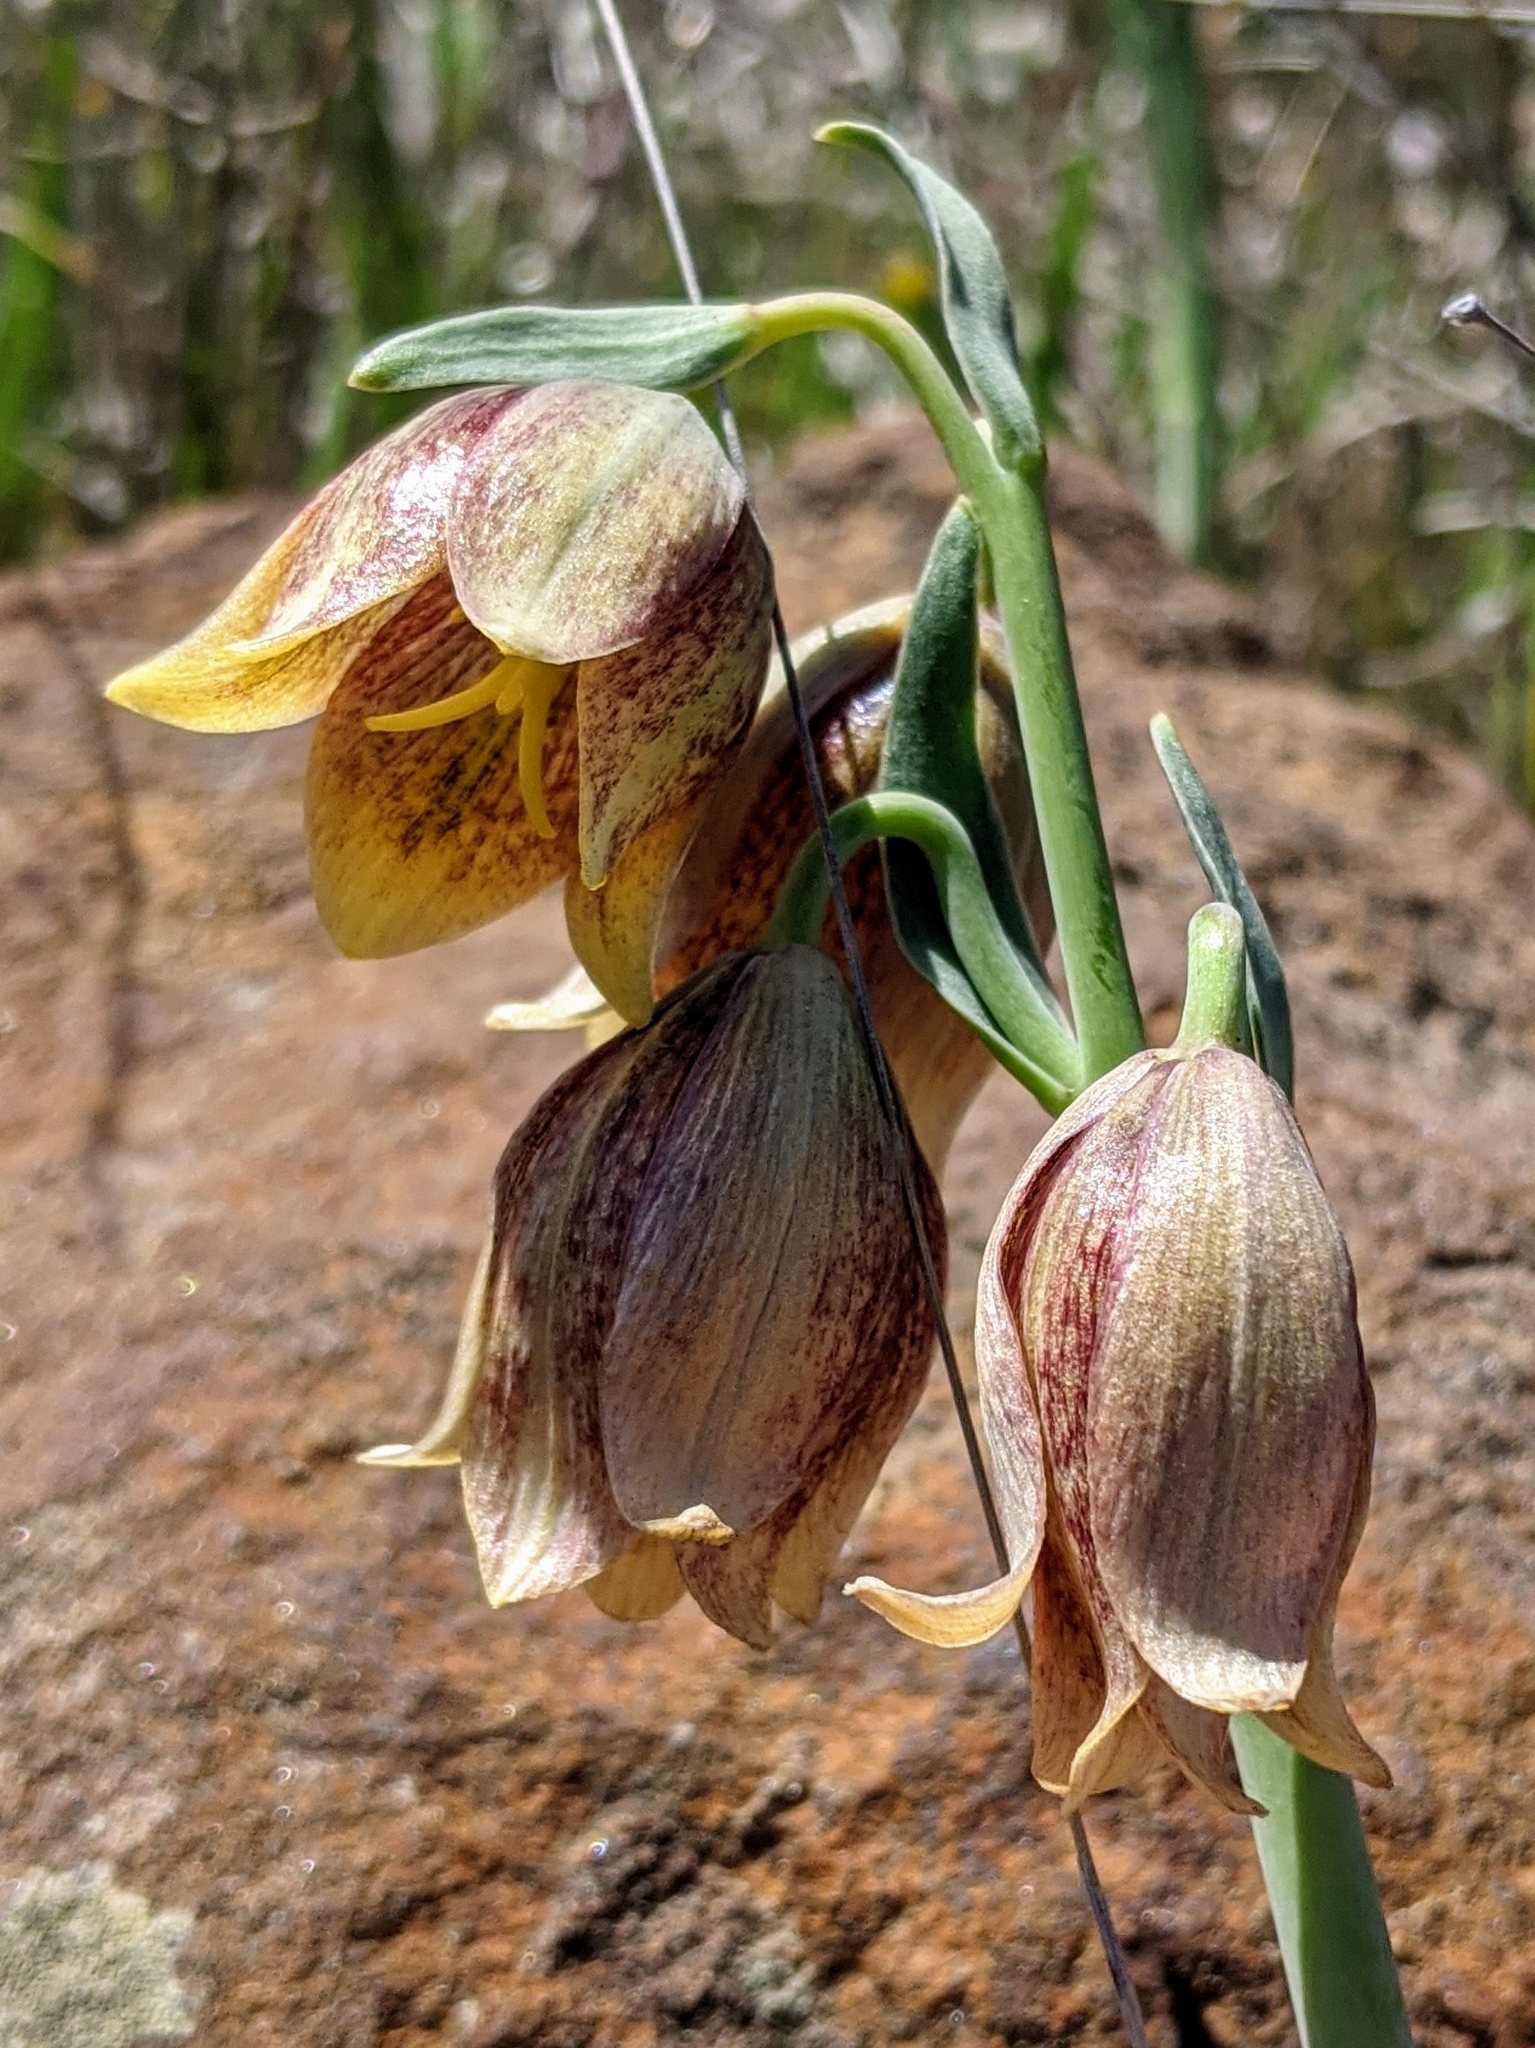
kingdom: Plantae
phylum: Tracheophyta
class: Liliopsida
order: Liliales
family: Liliaceae
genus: Fritillaria
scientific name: Fritillaria agrestis
